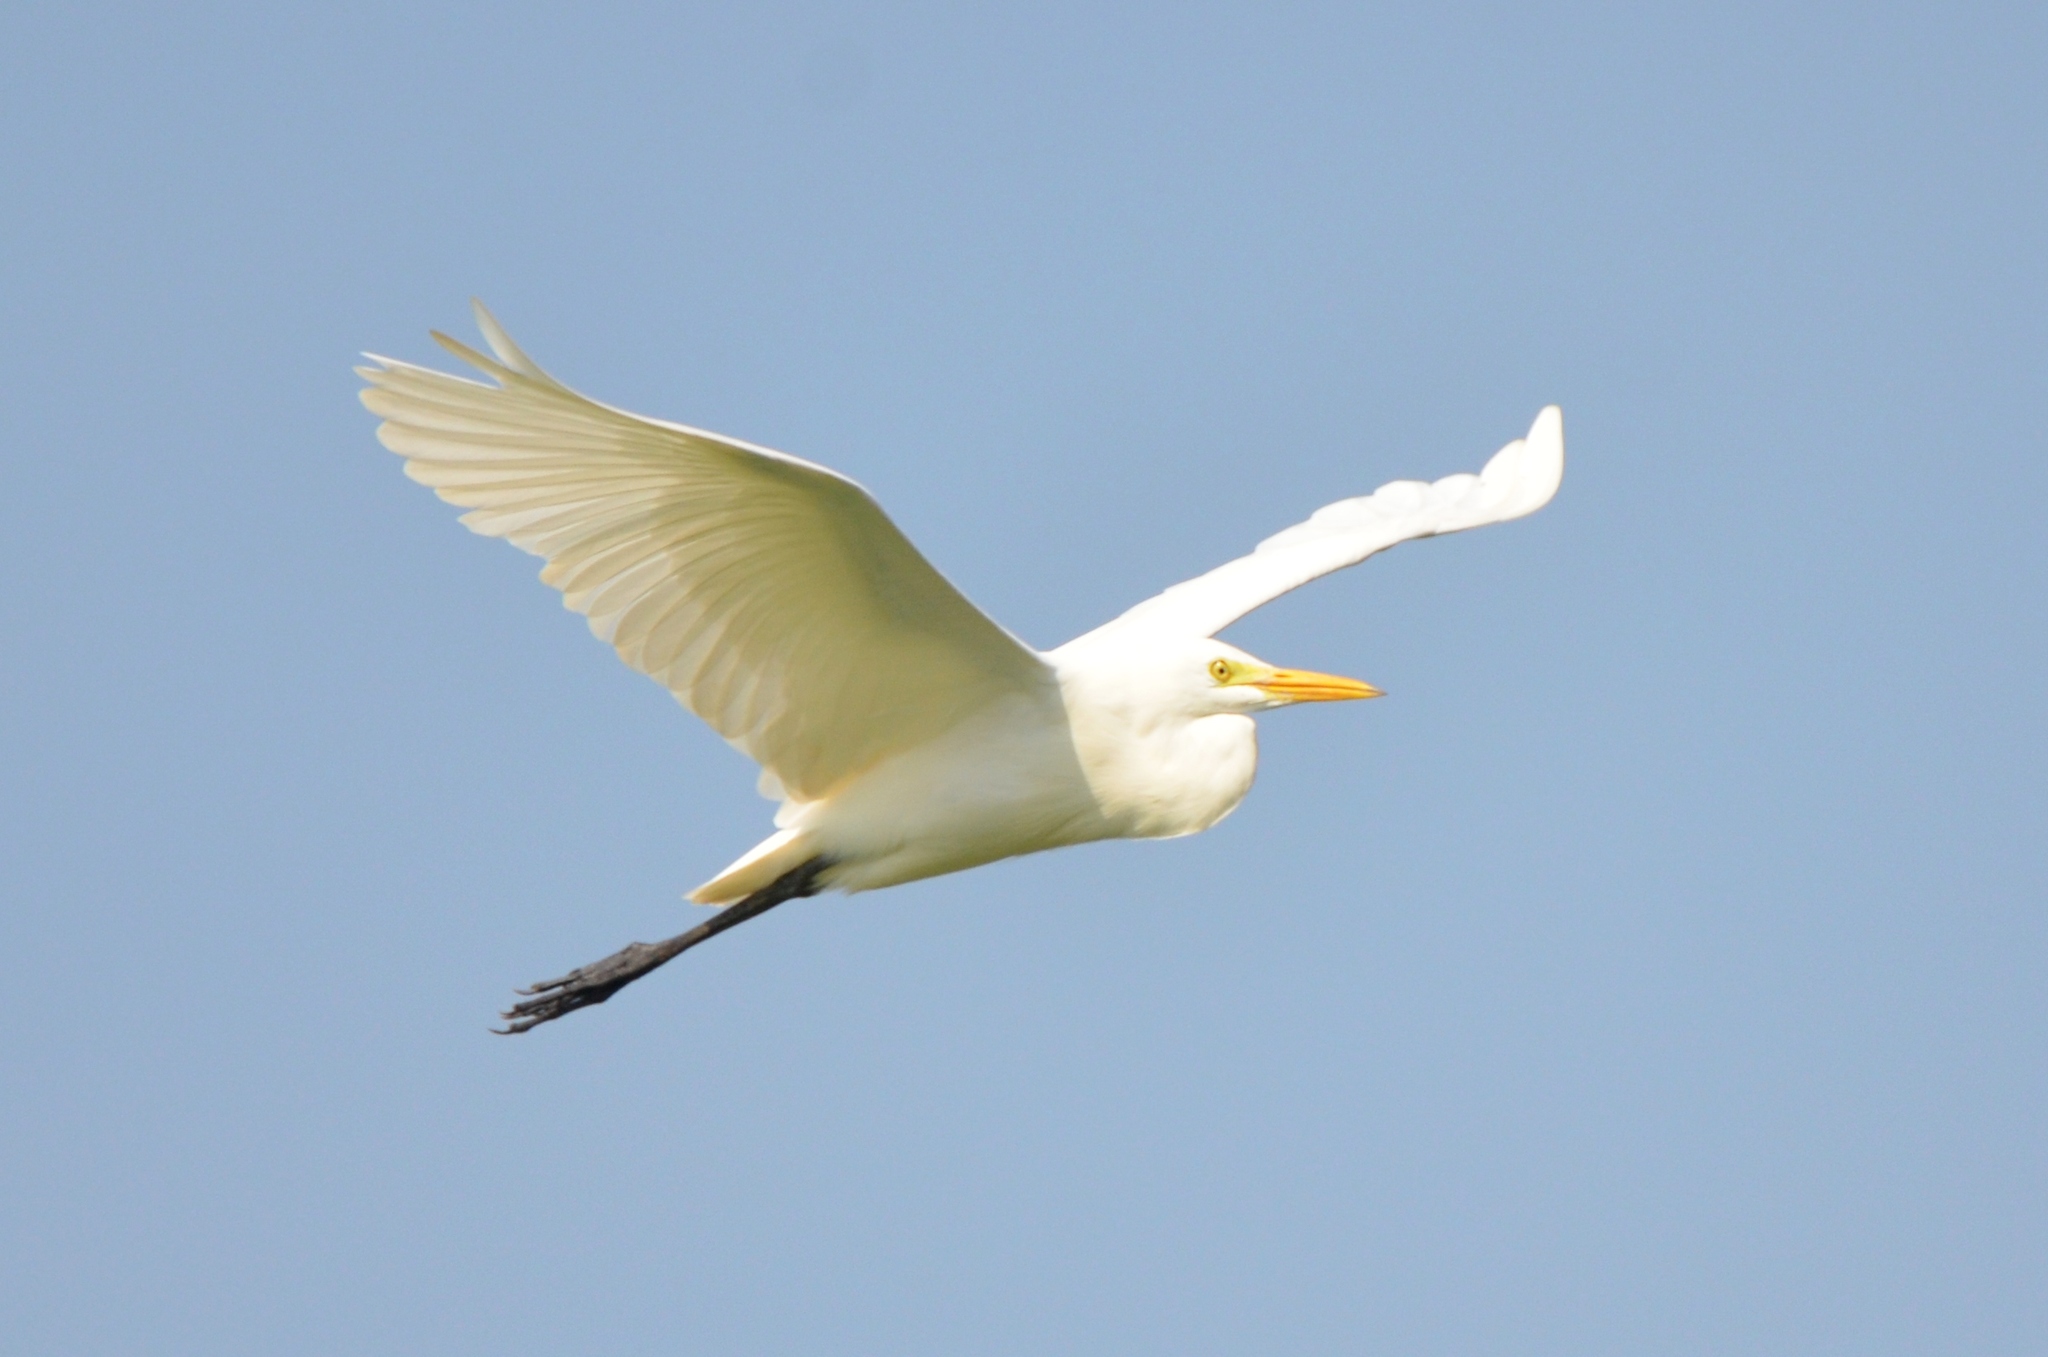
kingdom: Animalia
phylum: Chordata
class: Aves
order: Pelecaniformes
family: Ardeidae
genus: Egretta
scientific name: Egretta intermedia
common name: Intermediate egret
